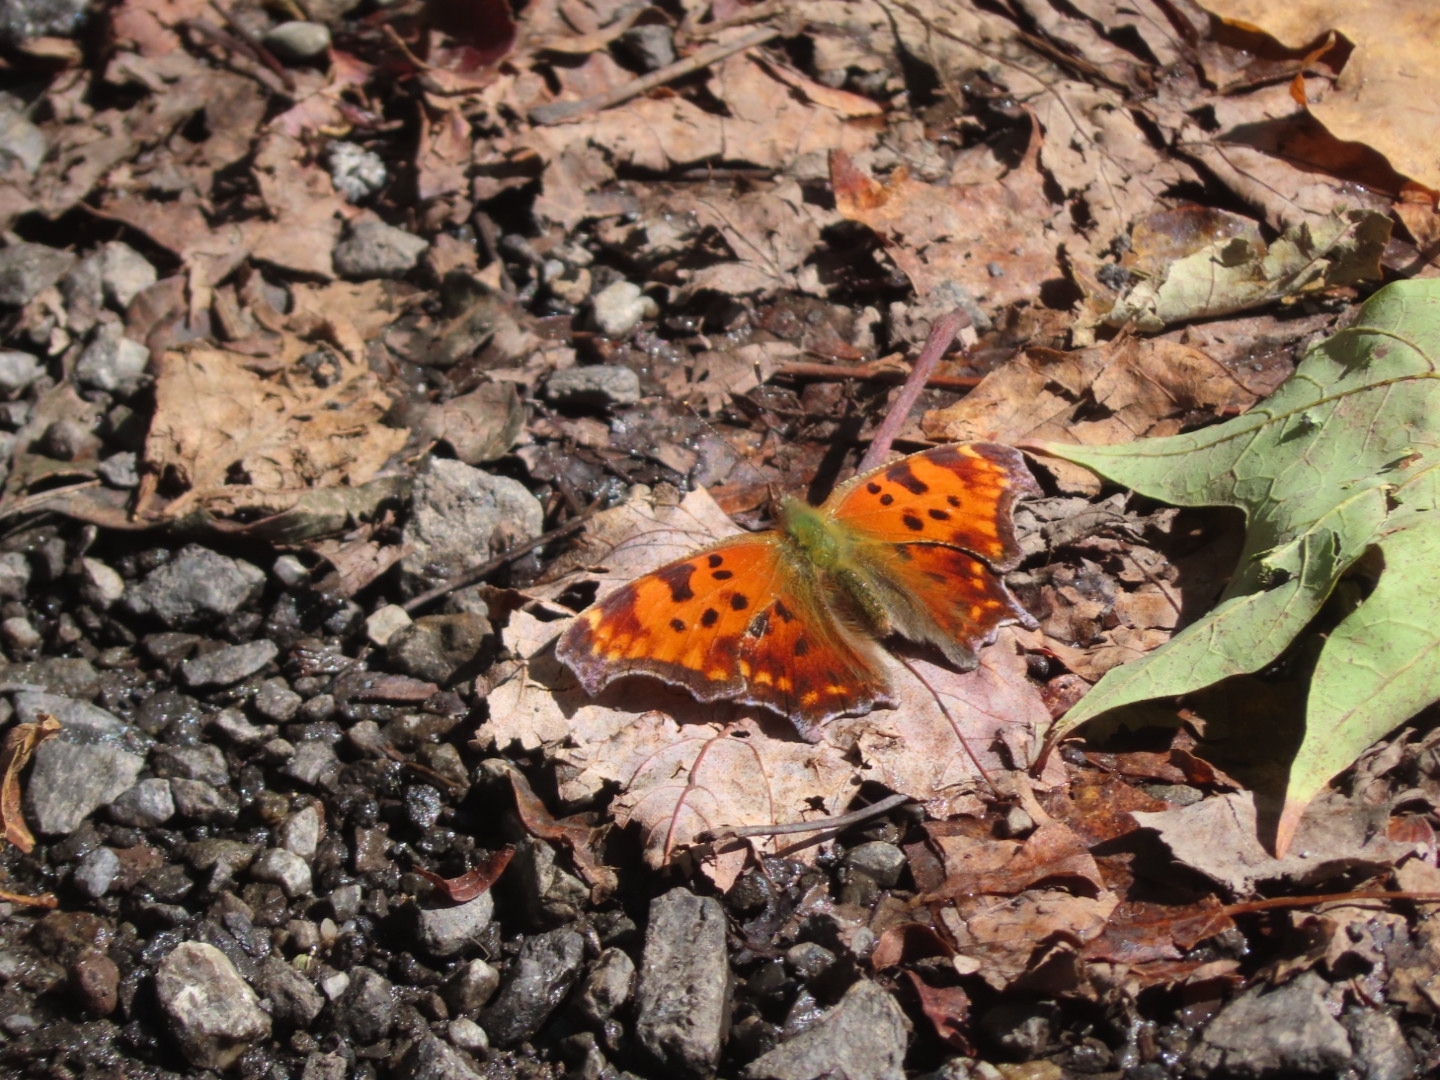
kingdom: Animalia
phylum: Arthropoda
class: Insecta
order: Lepidoptera
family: Nymphalidae
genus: Polygonia
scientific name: Polygonia comma
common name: Eastern comma
